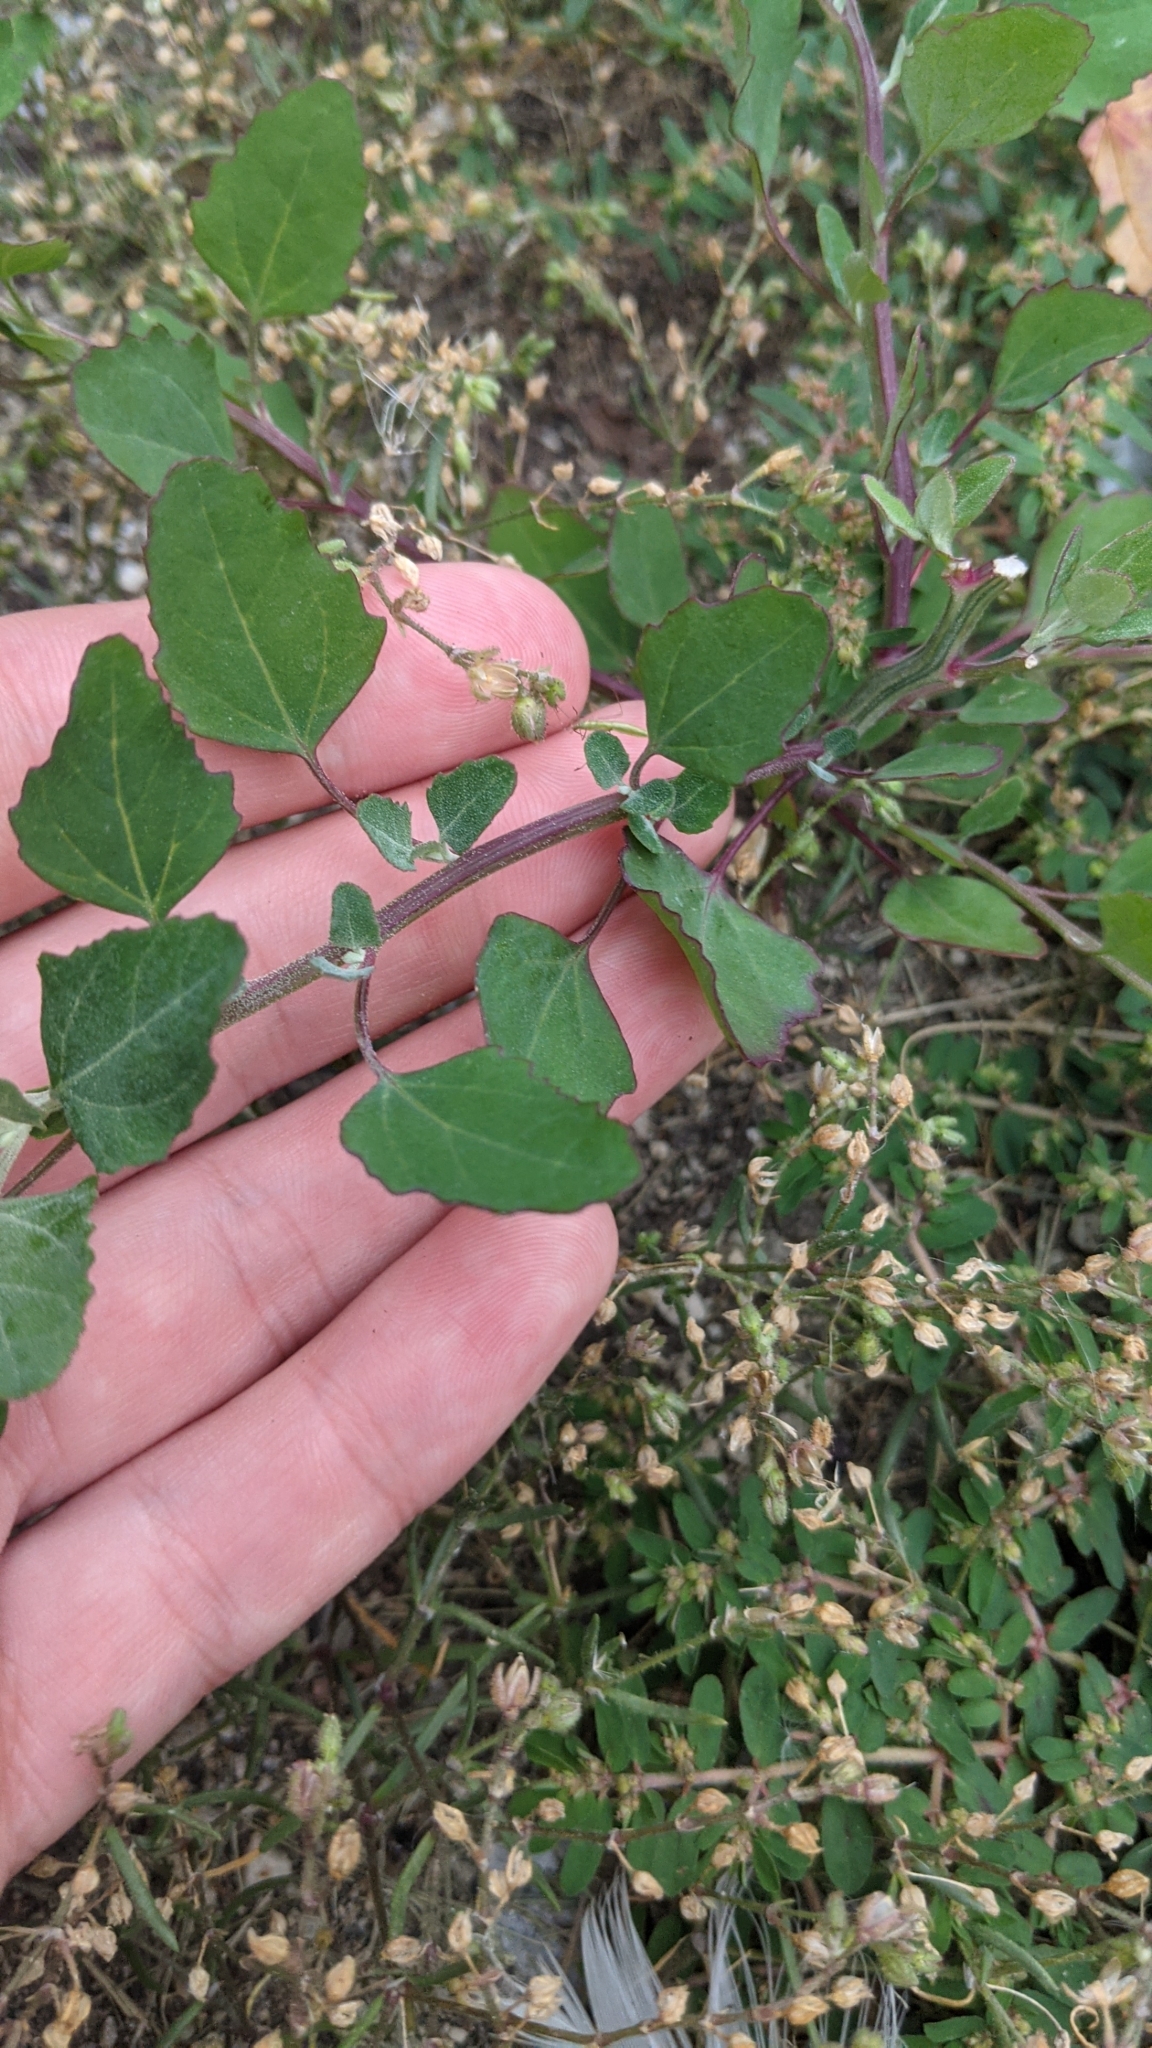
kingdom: Plantae
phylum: Tracheophyta
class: Magnoliopsida
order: Caryophyllales
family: Amaranthaceae
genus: Chenopodium
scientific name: Chenopodium album
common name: Fat-hen
